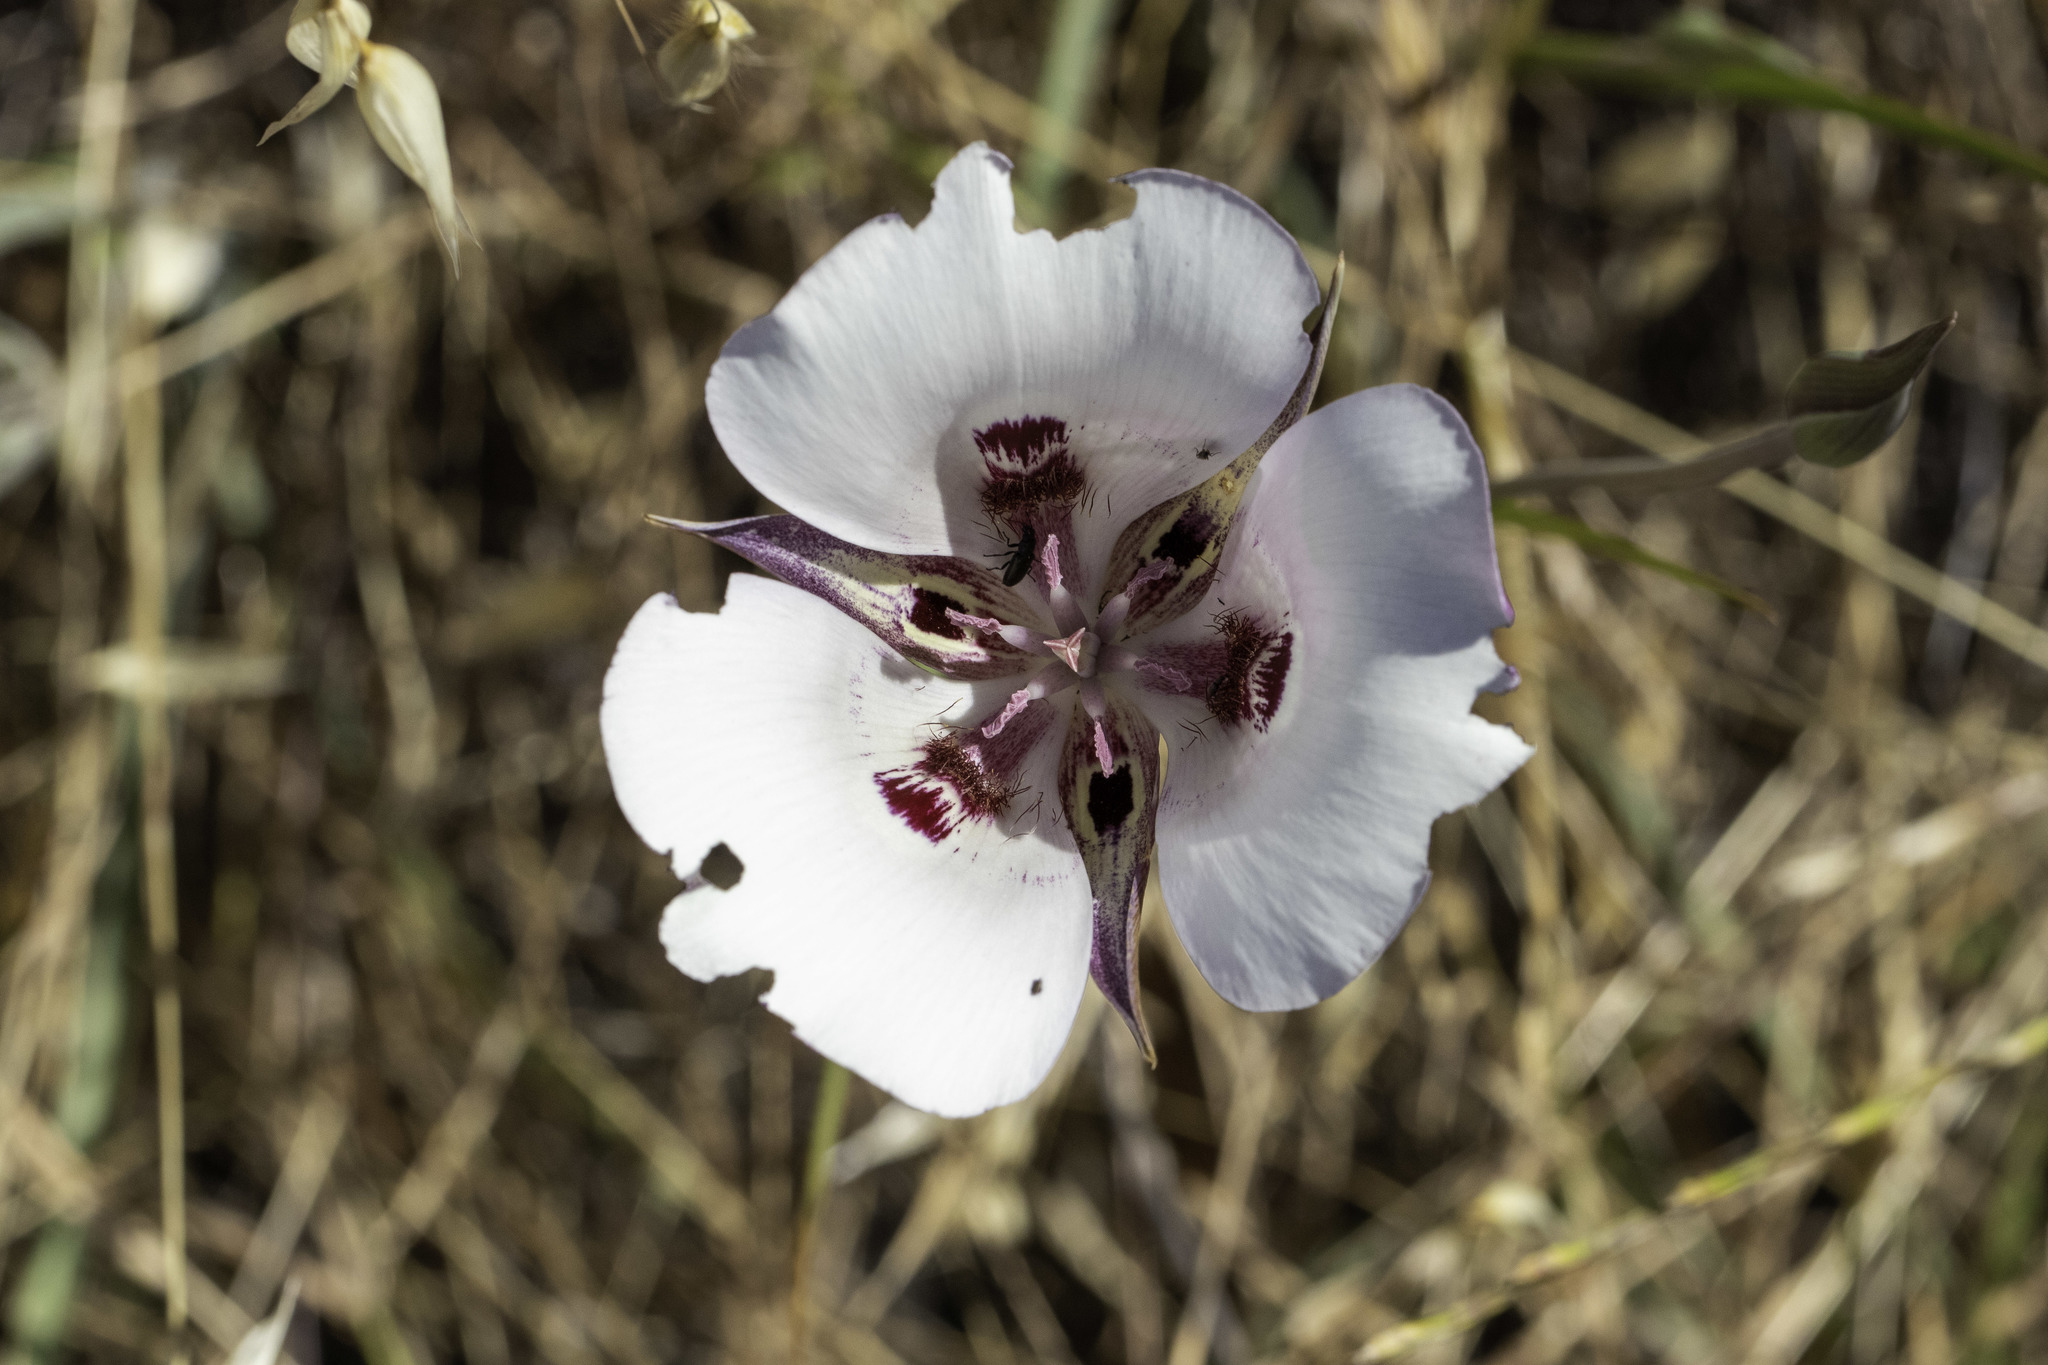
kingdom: Plantae
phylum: Tracheophyta
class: Liliopsida
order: Liliales
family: Liliaceae
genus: Calochortus
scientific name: Calochortus argillosus
